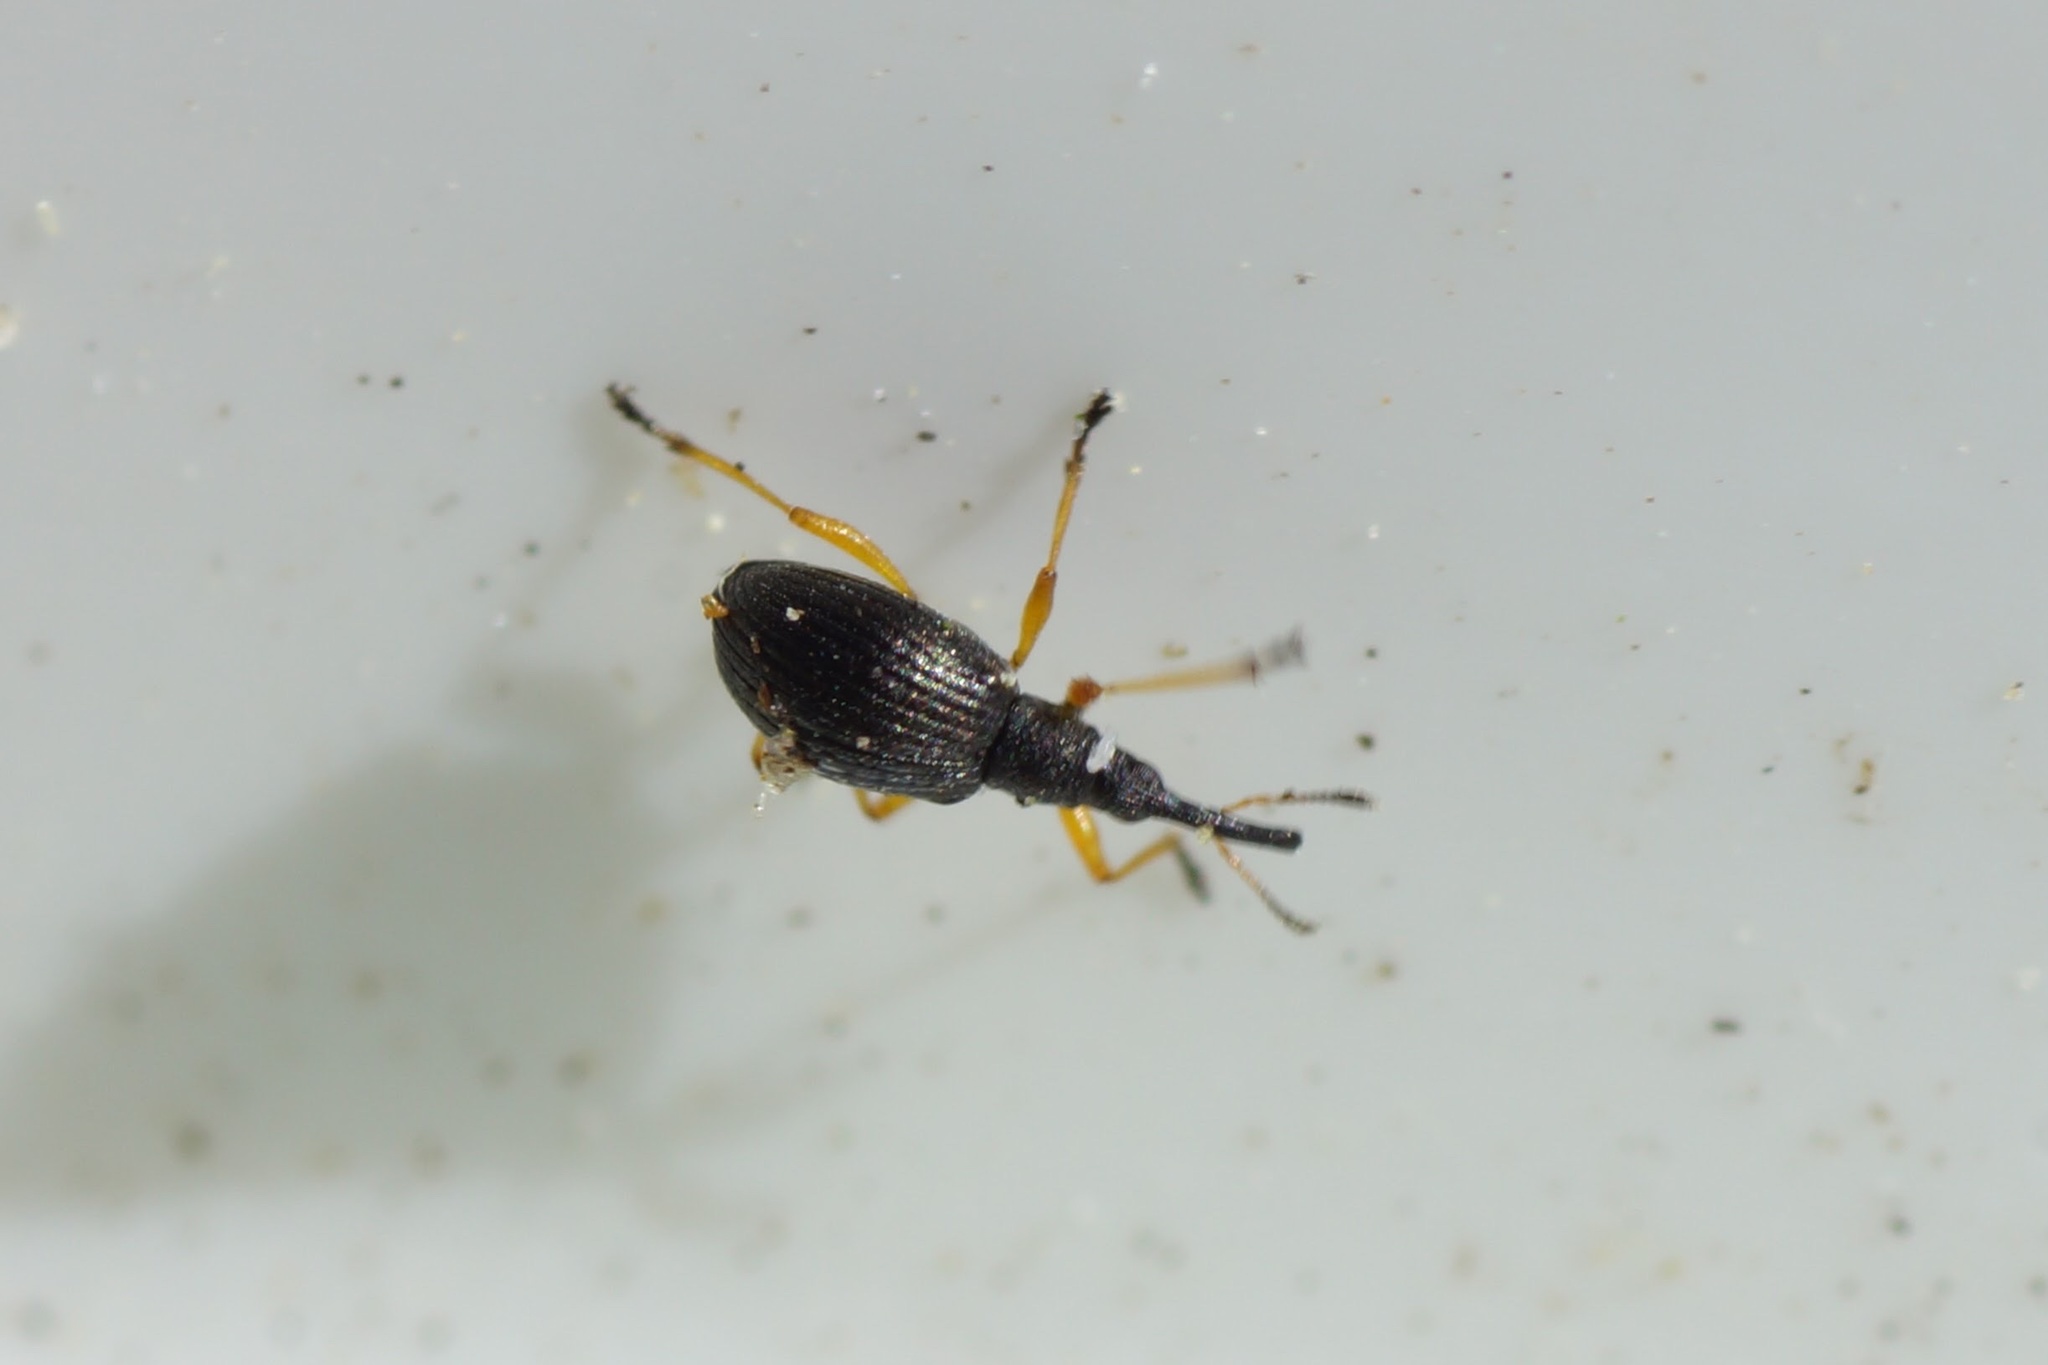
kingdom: Animalia
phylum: Arthropoda
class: Insecta
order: Coleoptera
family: Apionidae
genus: Protapion
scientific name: Protapion fulvipes
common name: White clover seed weevil
